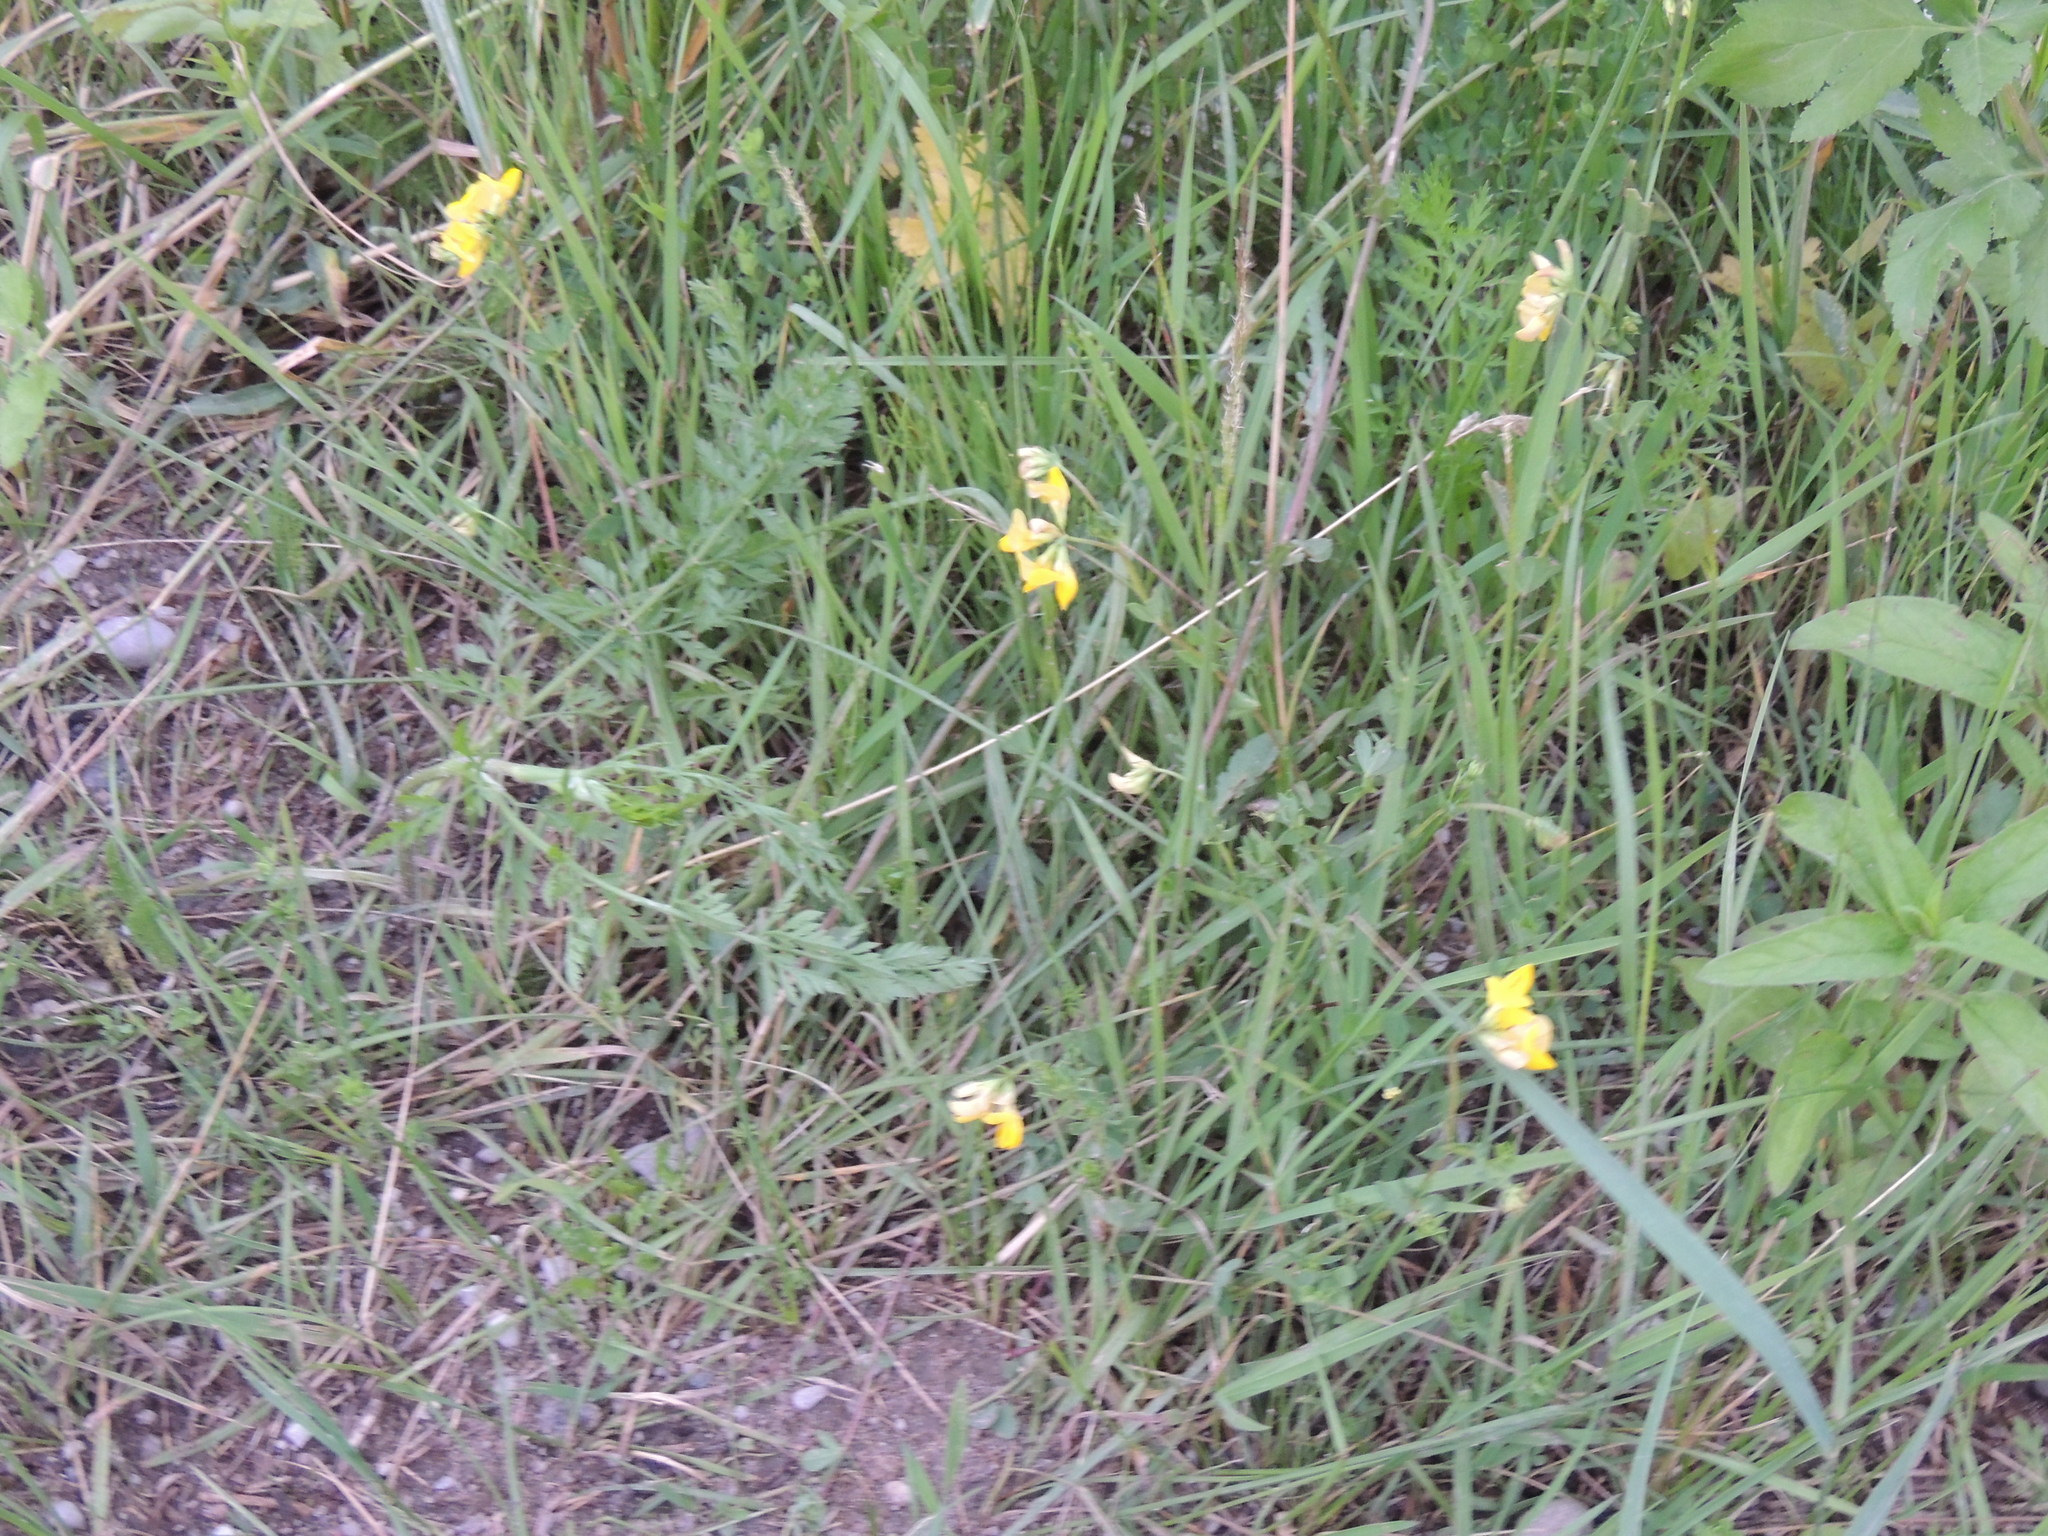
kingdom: Plantae
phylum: Tracheophyta
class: Magnoliopsida
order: Fabales
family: Fabaceae
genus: Lotus
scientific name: Lotus corniculatus
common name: Common bird's-foot-trefoil
